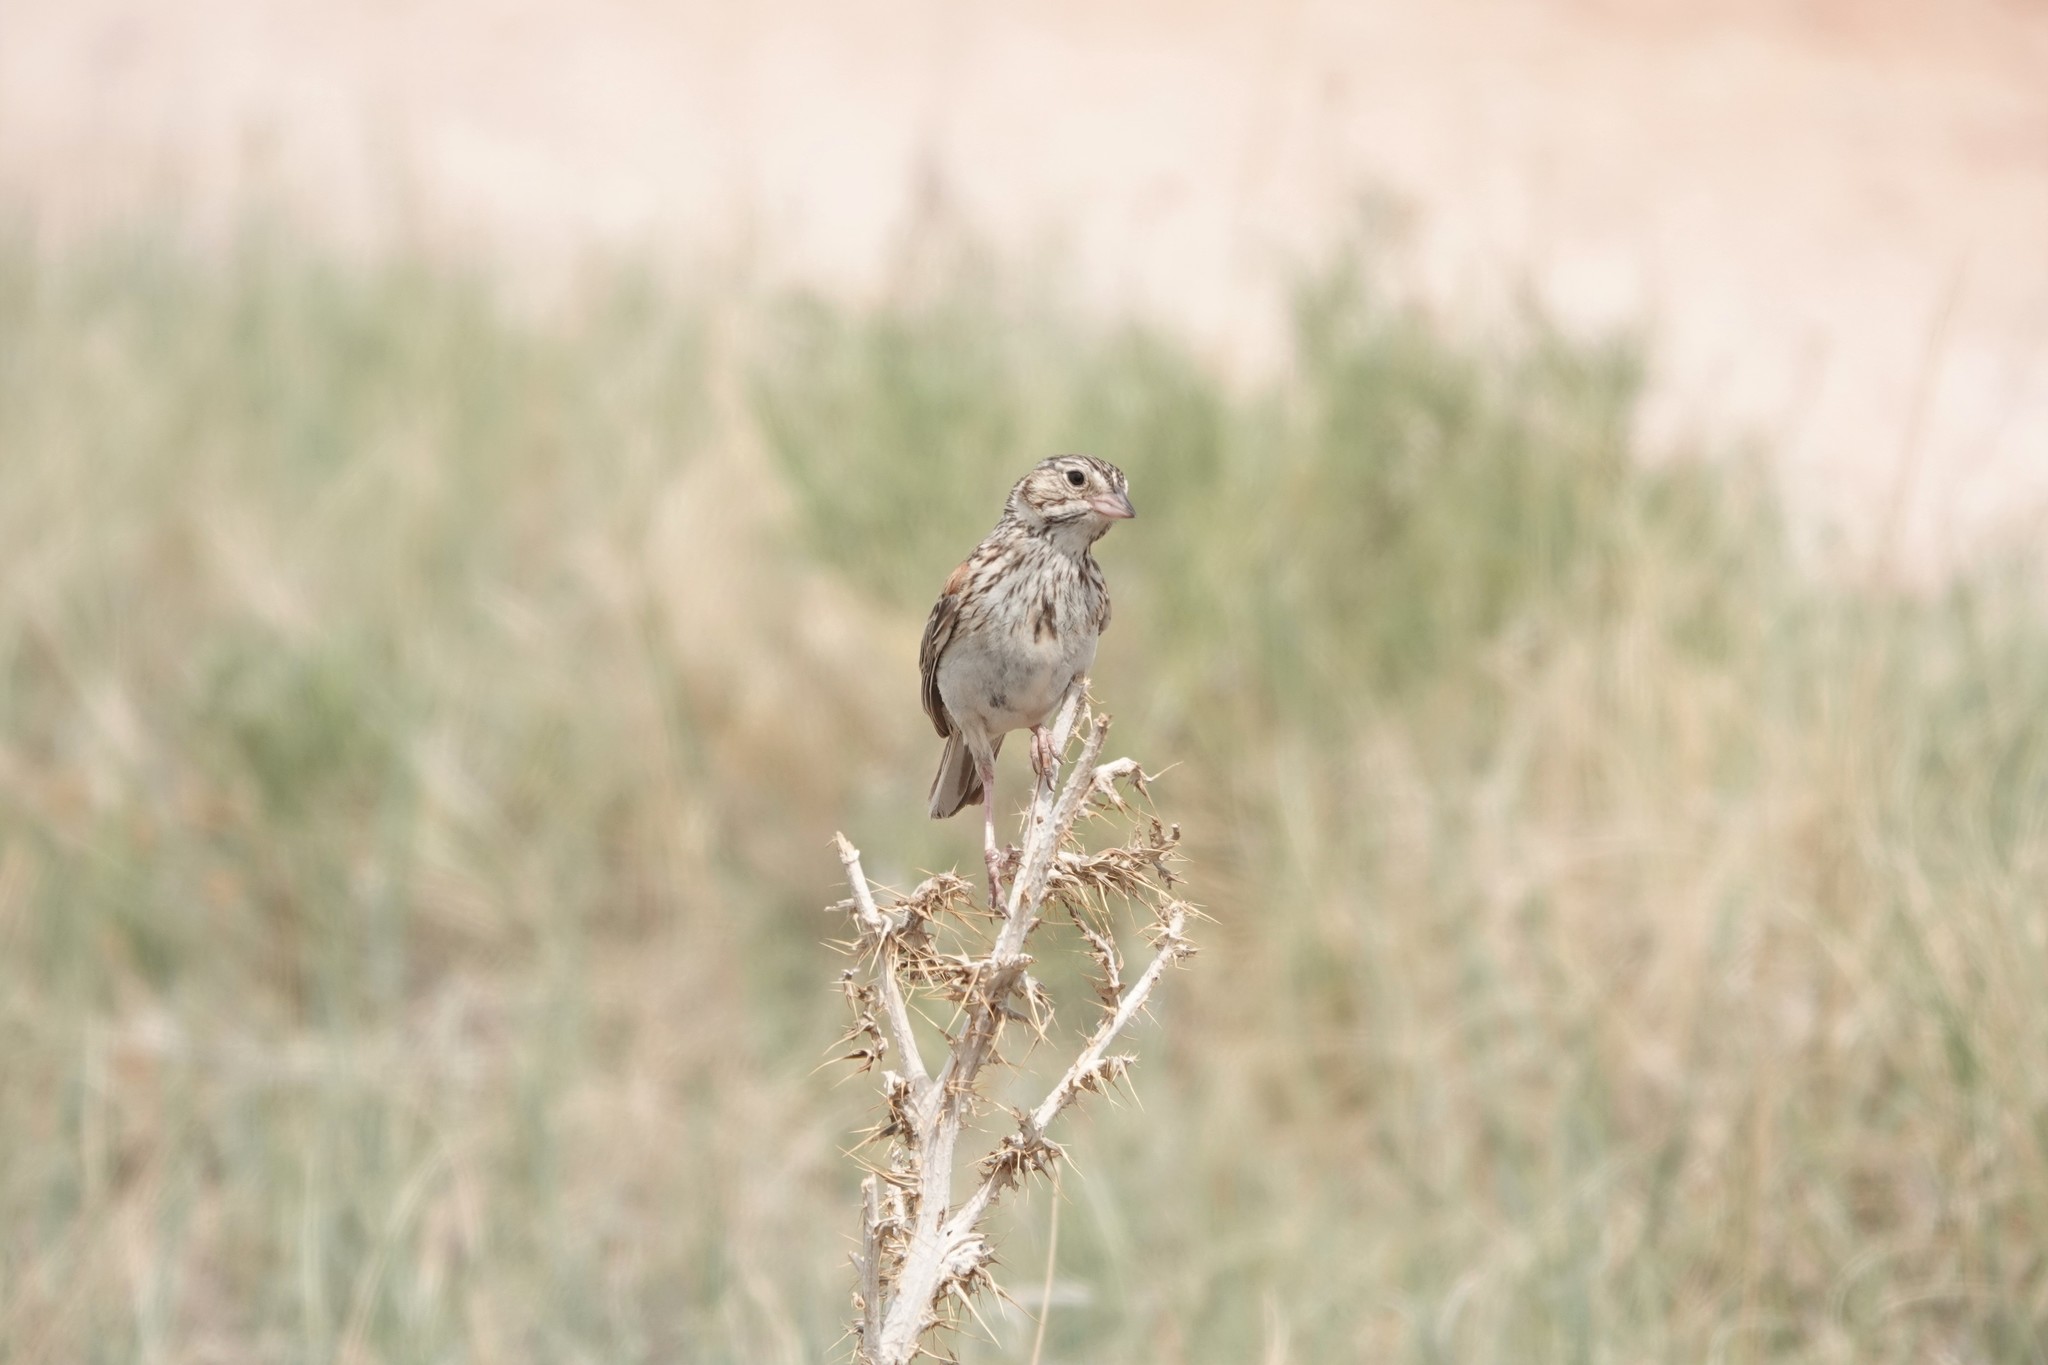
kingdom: Animalia
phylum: Chordata
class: Aves
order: Passeriformes
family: Passerellidae
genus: Pooecetes
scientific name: Pooecetes gramineus
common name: Vesper sparrow
